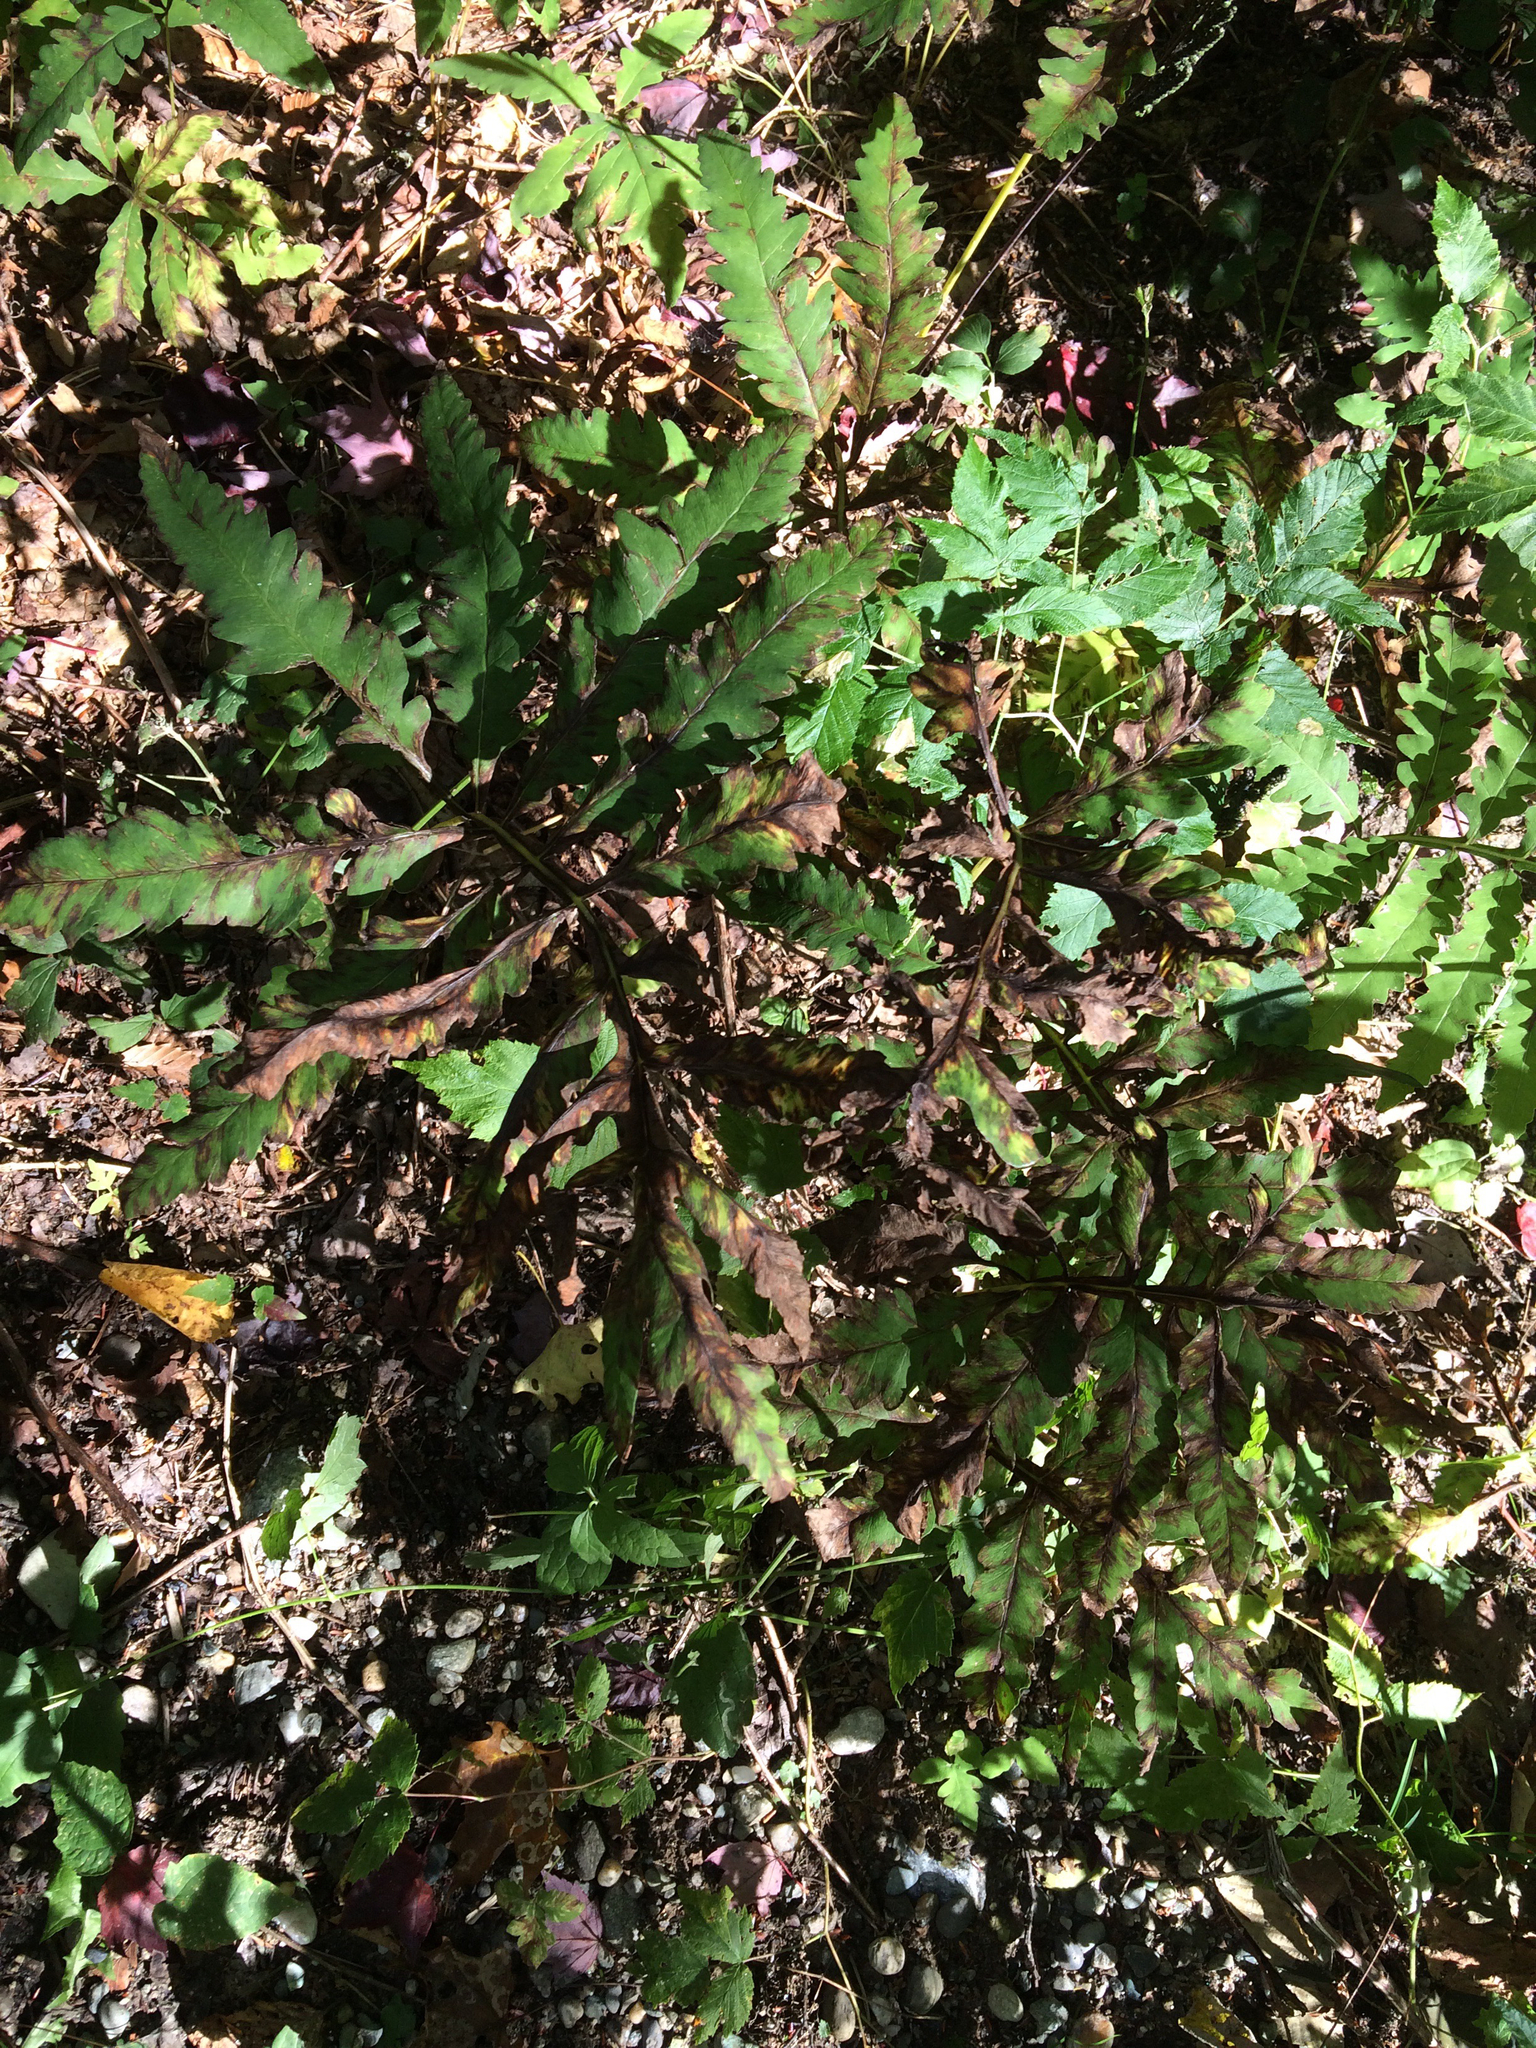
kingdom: Plantae
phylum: Tracheophyta
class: Polypodiopsida
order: Polypodiales
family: Onocleaceae
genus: Onoclea
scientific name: Onoclea sensibilis
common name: Sensitive fern
